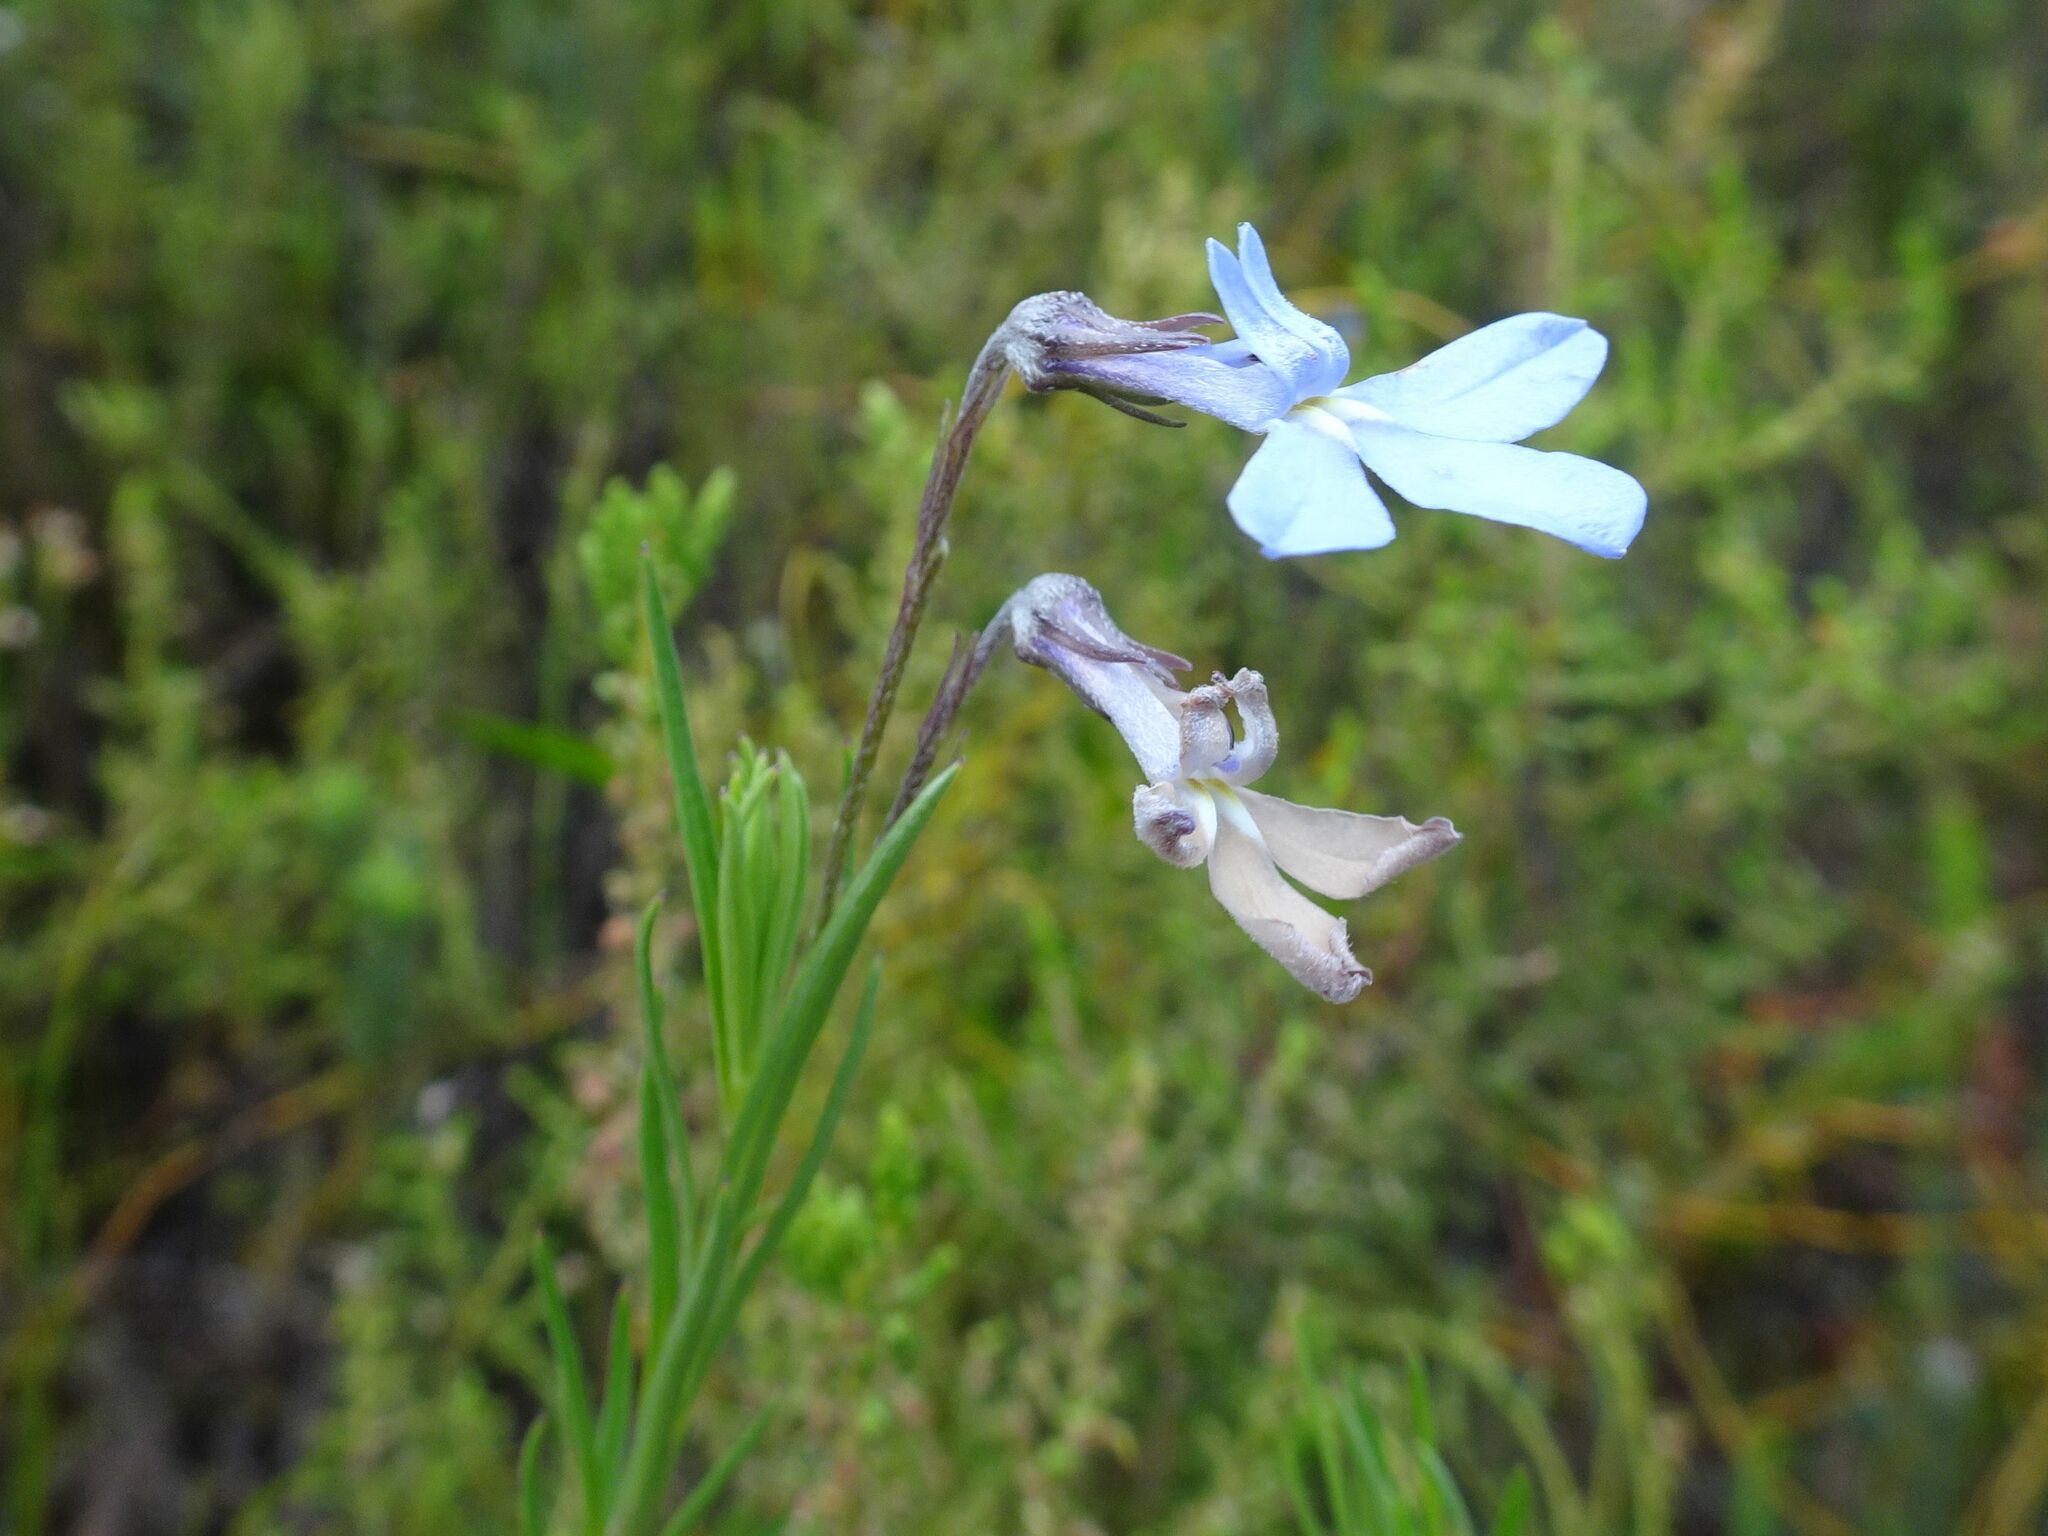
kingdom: Plantae
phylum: Tracheophyta
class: Magnoliopsida
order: Asterales
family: Campanulaceae
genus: Lobelia
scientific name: Lobelia pinifolia
